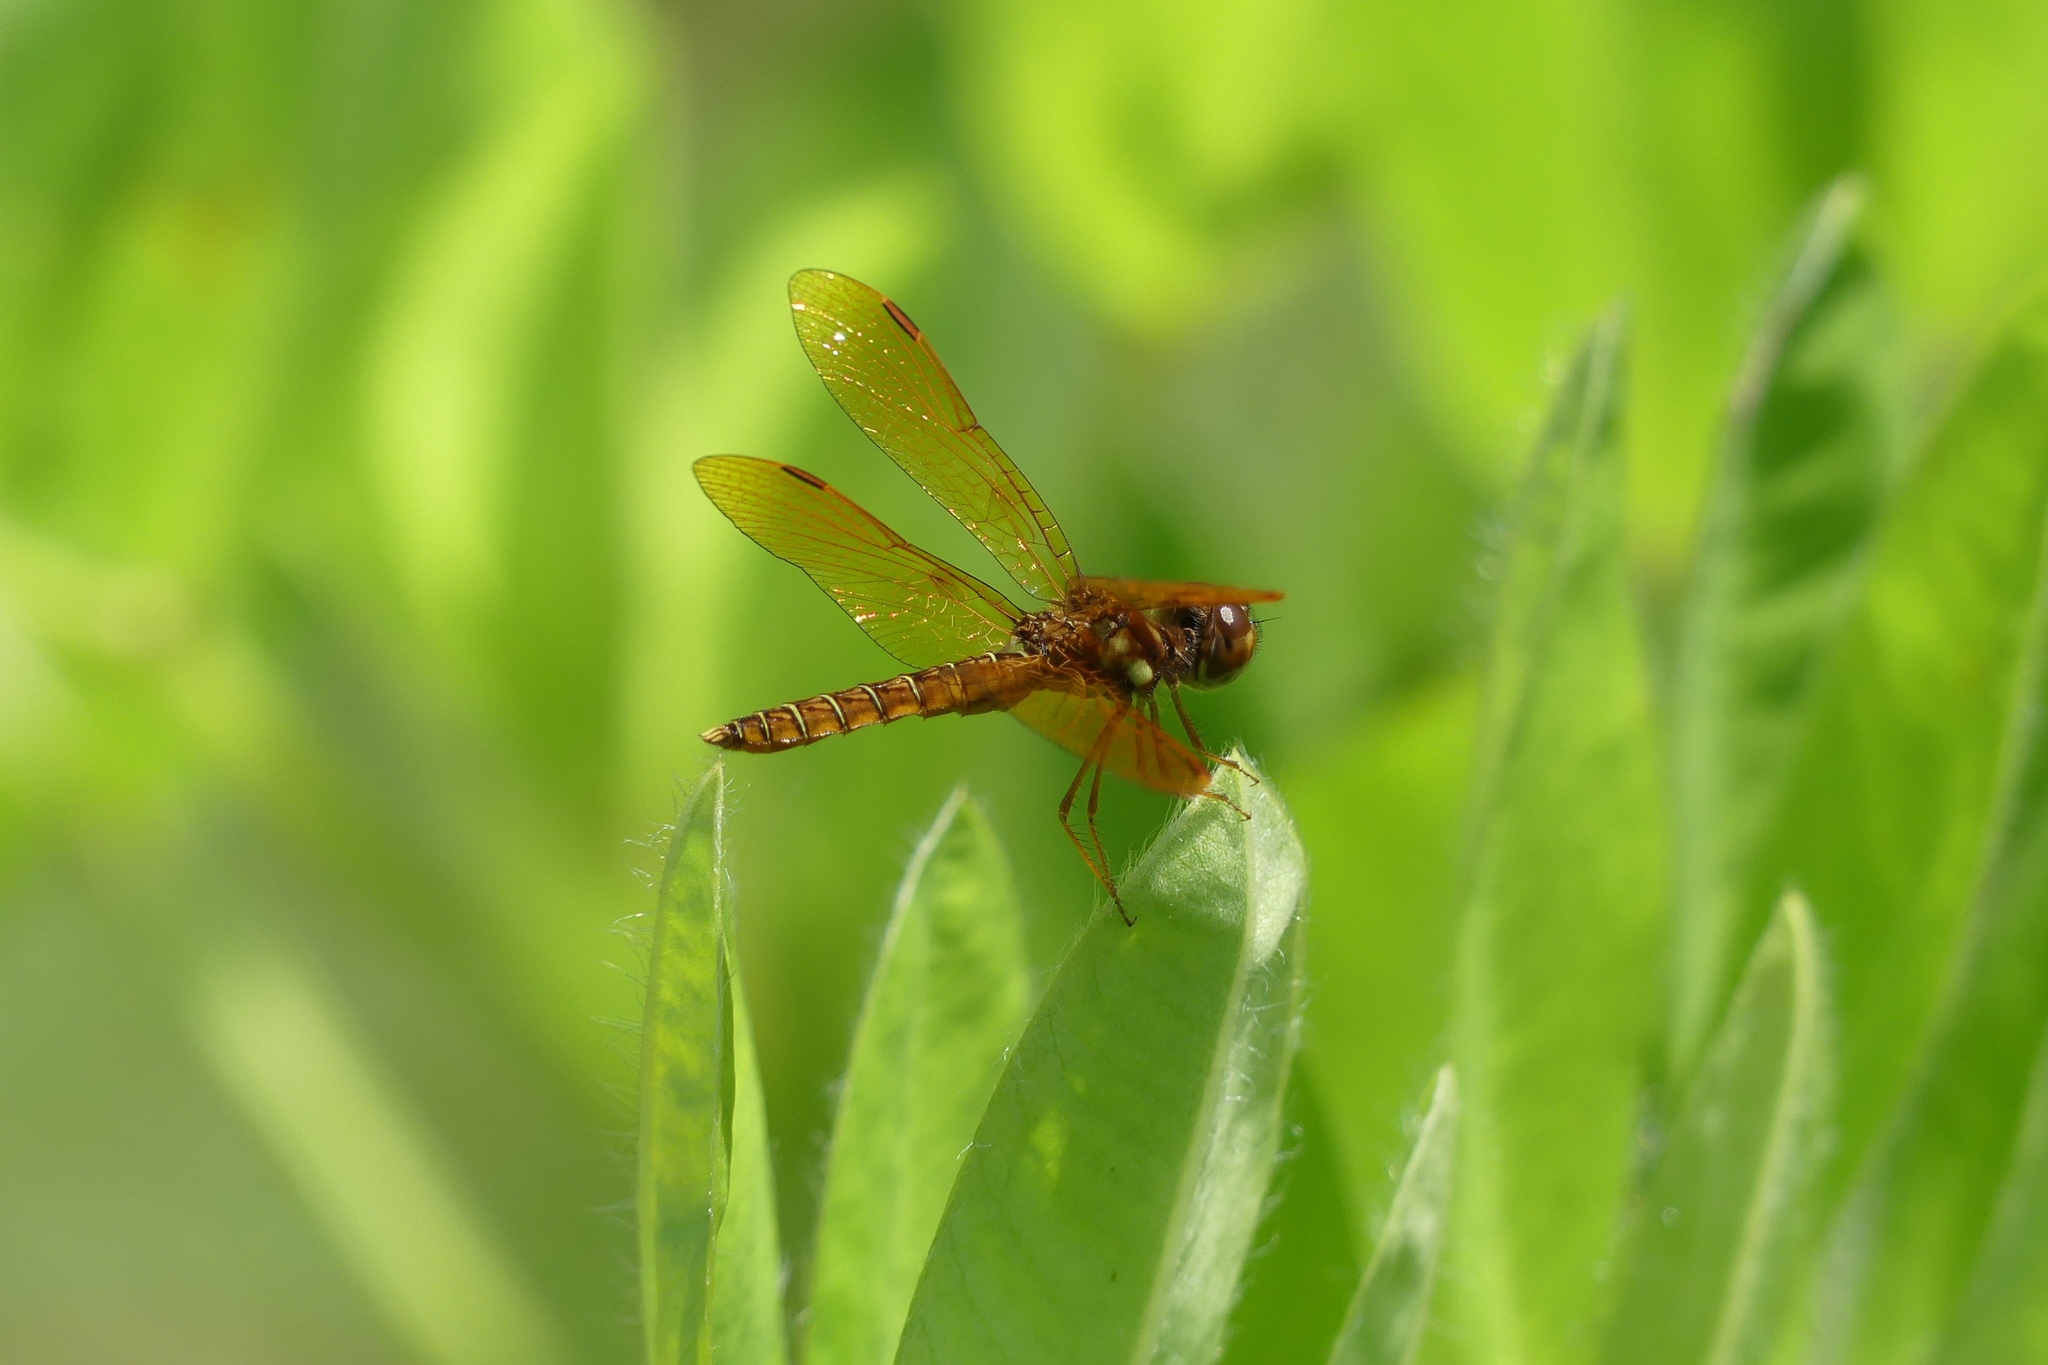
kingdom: Animalia
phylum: Arthropoda
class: Insecta
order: Odonata
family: Libellulidae
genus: Perithemis
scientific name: Perithemis tenera
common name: Eastern amberwing
